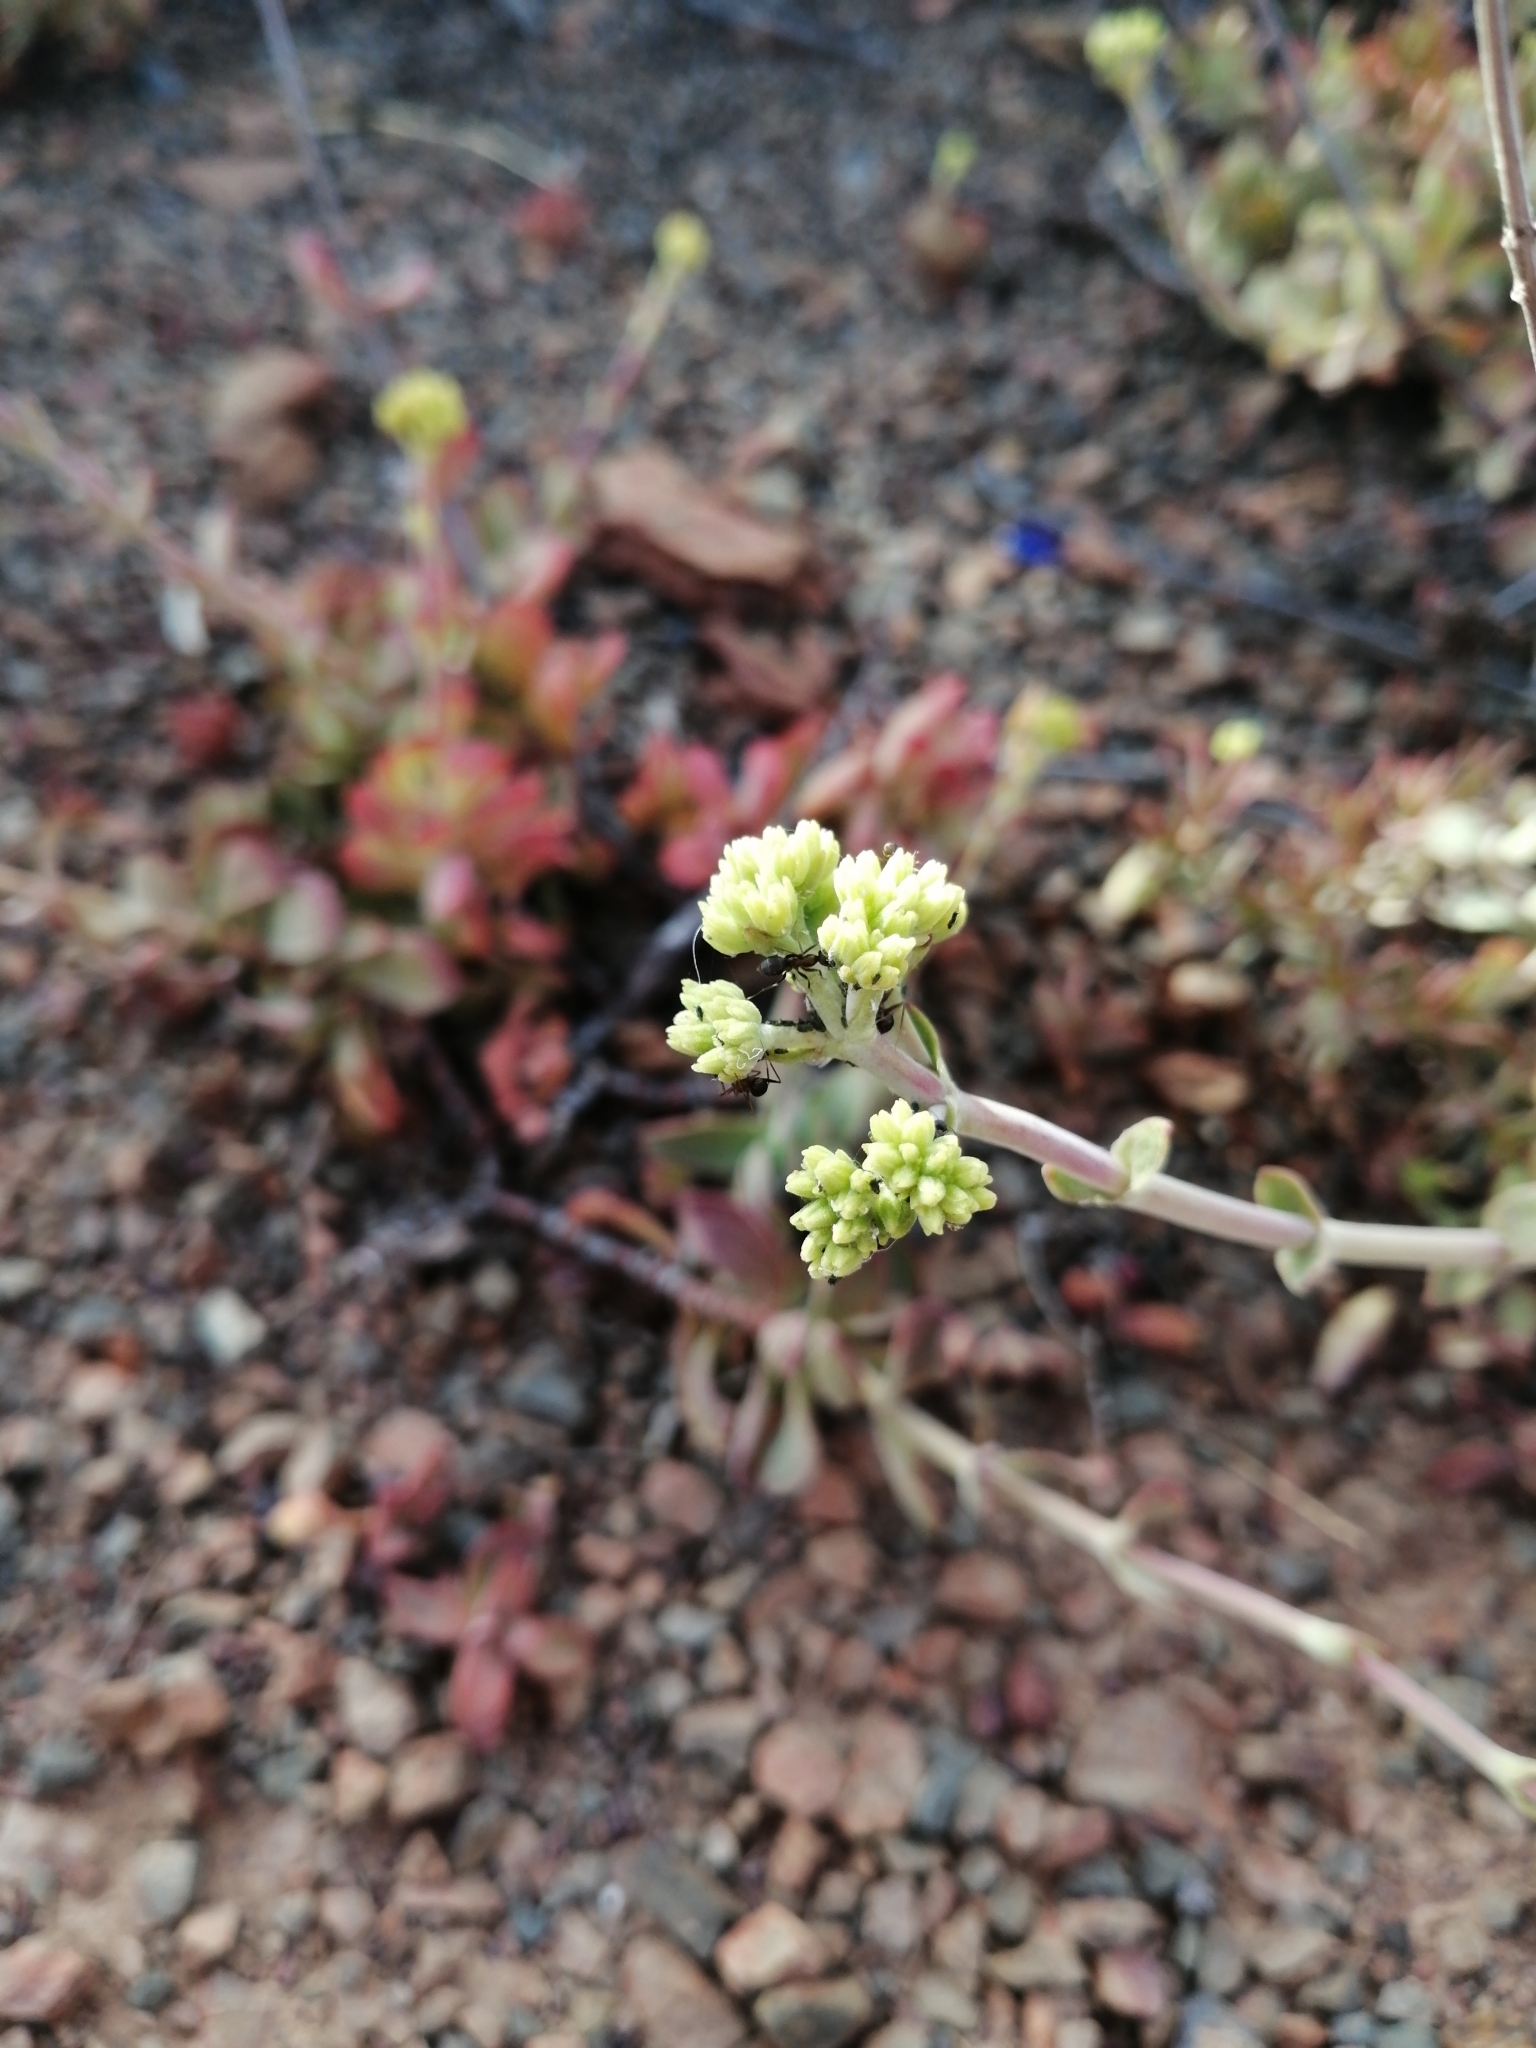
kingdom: Plantae
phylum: Tracheophyta
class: Magnoliopsida
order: Saxifragales
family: Crassulaceae
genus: Crassula
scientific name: Crassula atropurpurea
